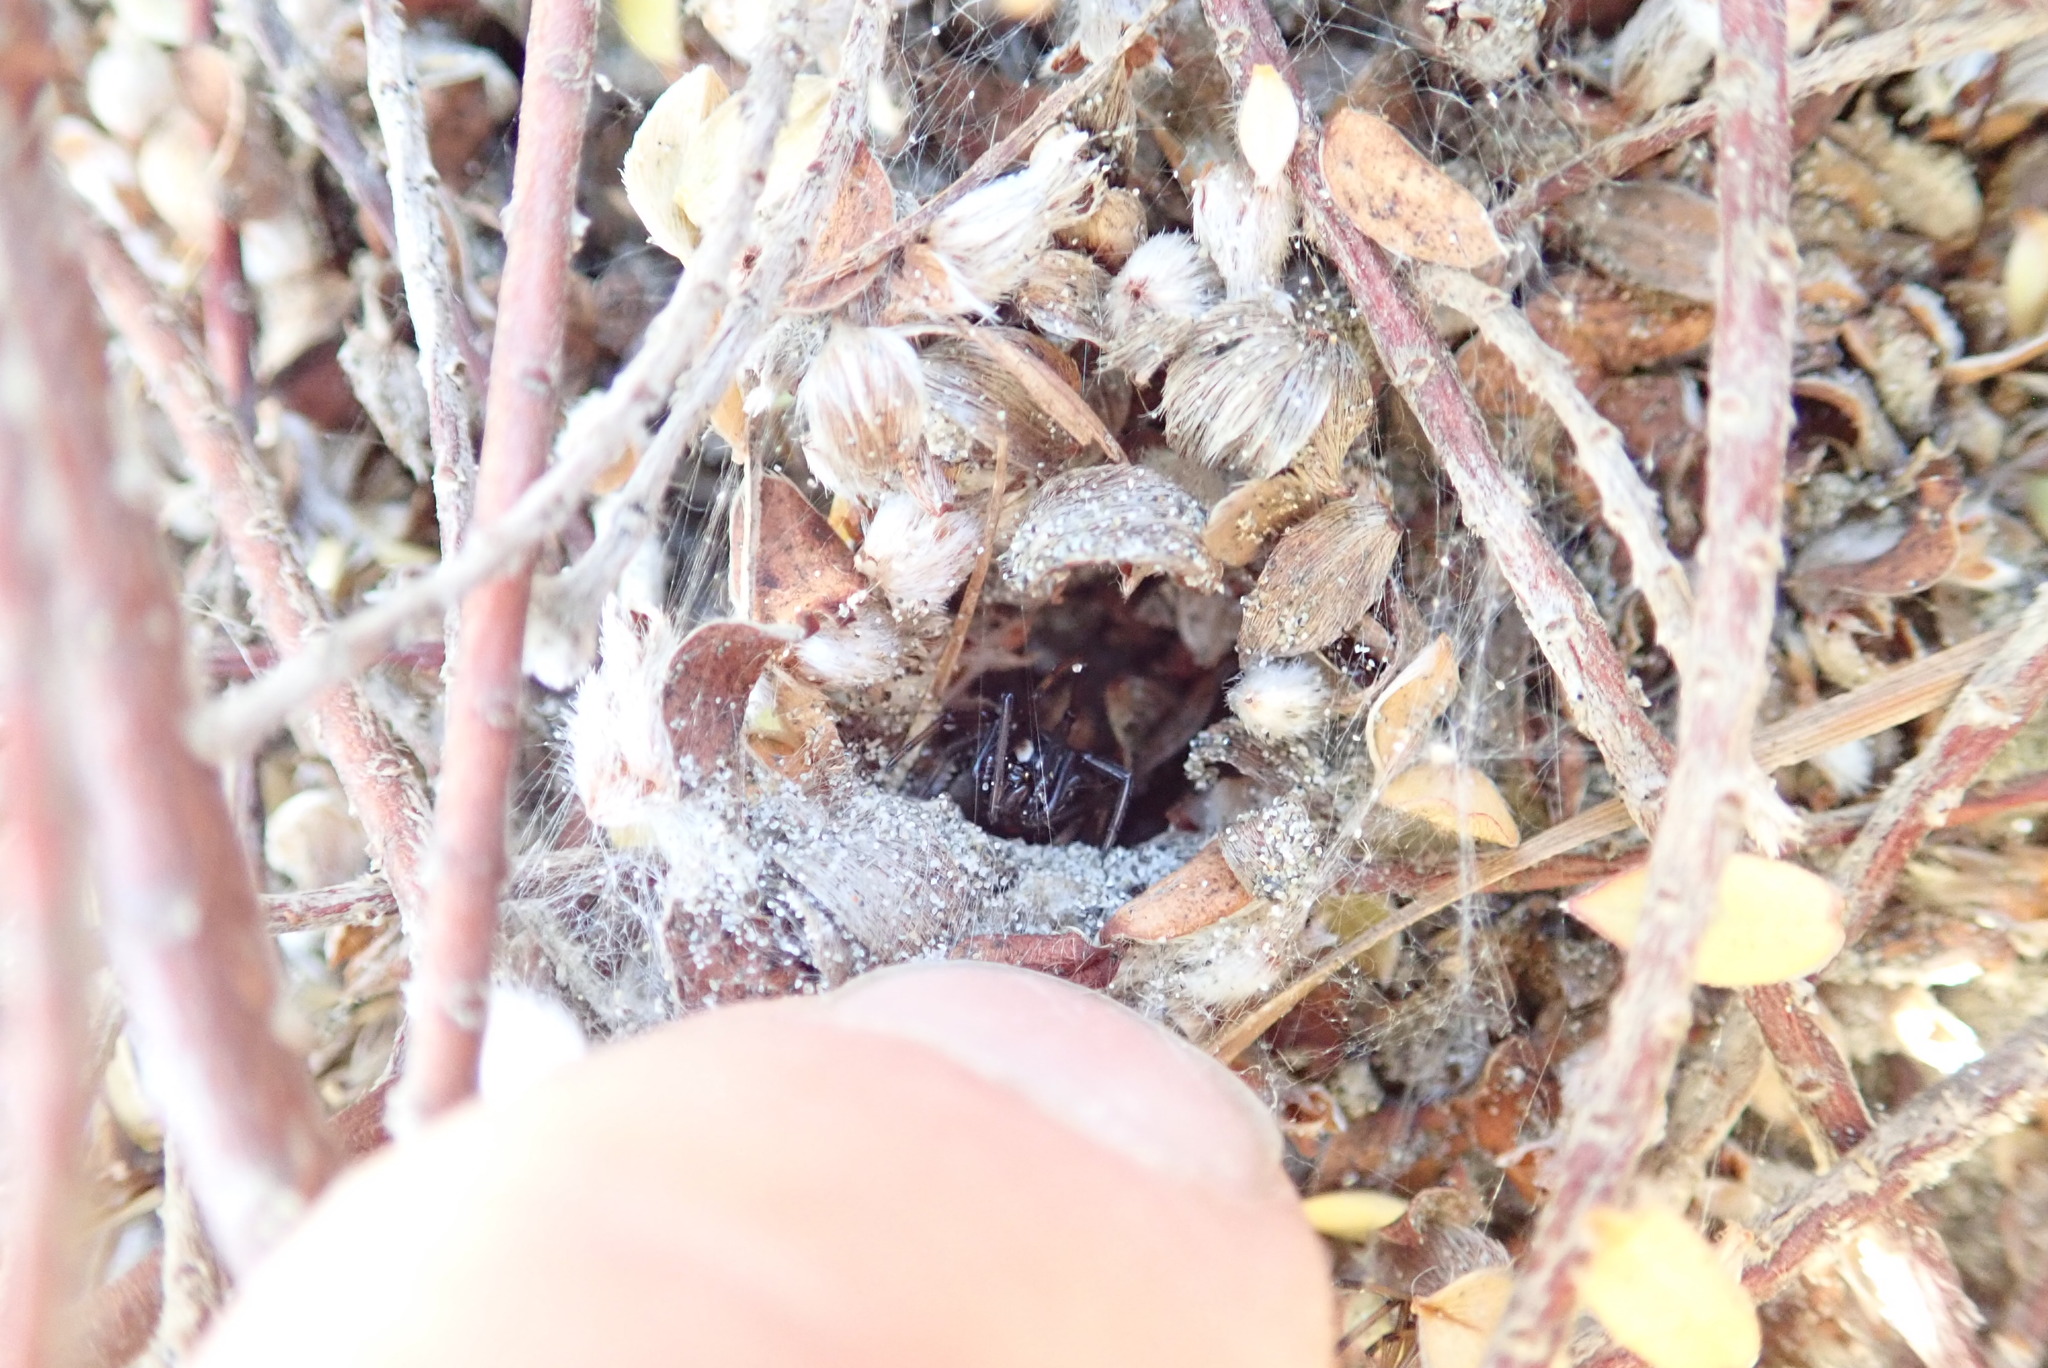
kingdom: Animalia
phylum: Arthropoda
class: Arachnida
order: Araneae
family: Theridiidae
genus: Latrodectus
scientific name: Latrodectus katipo
